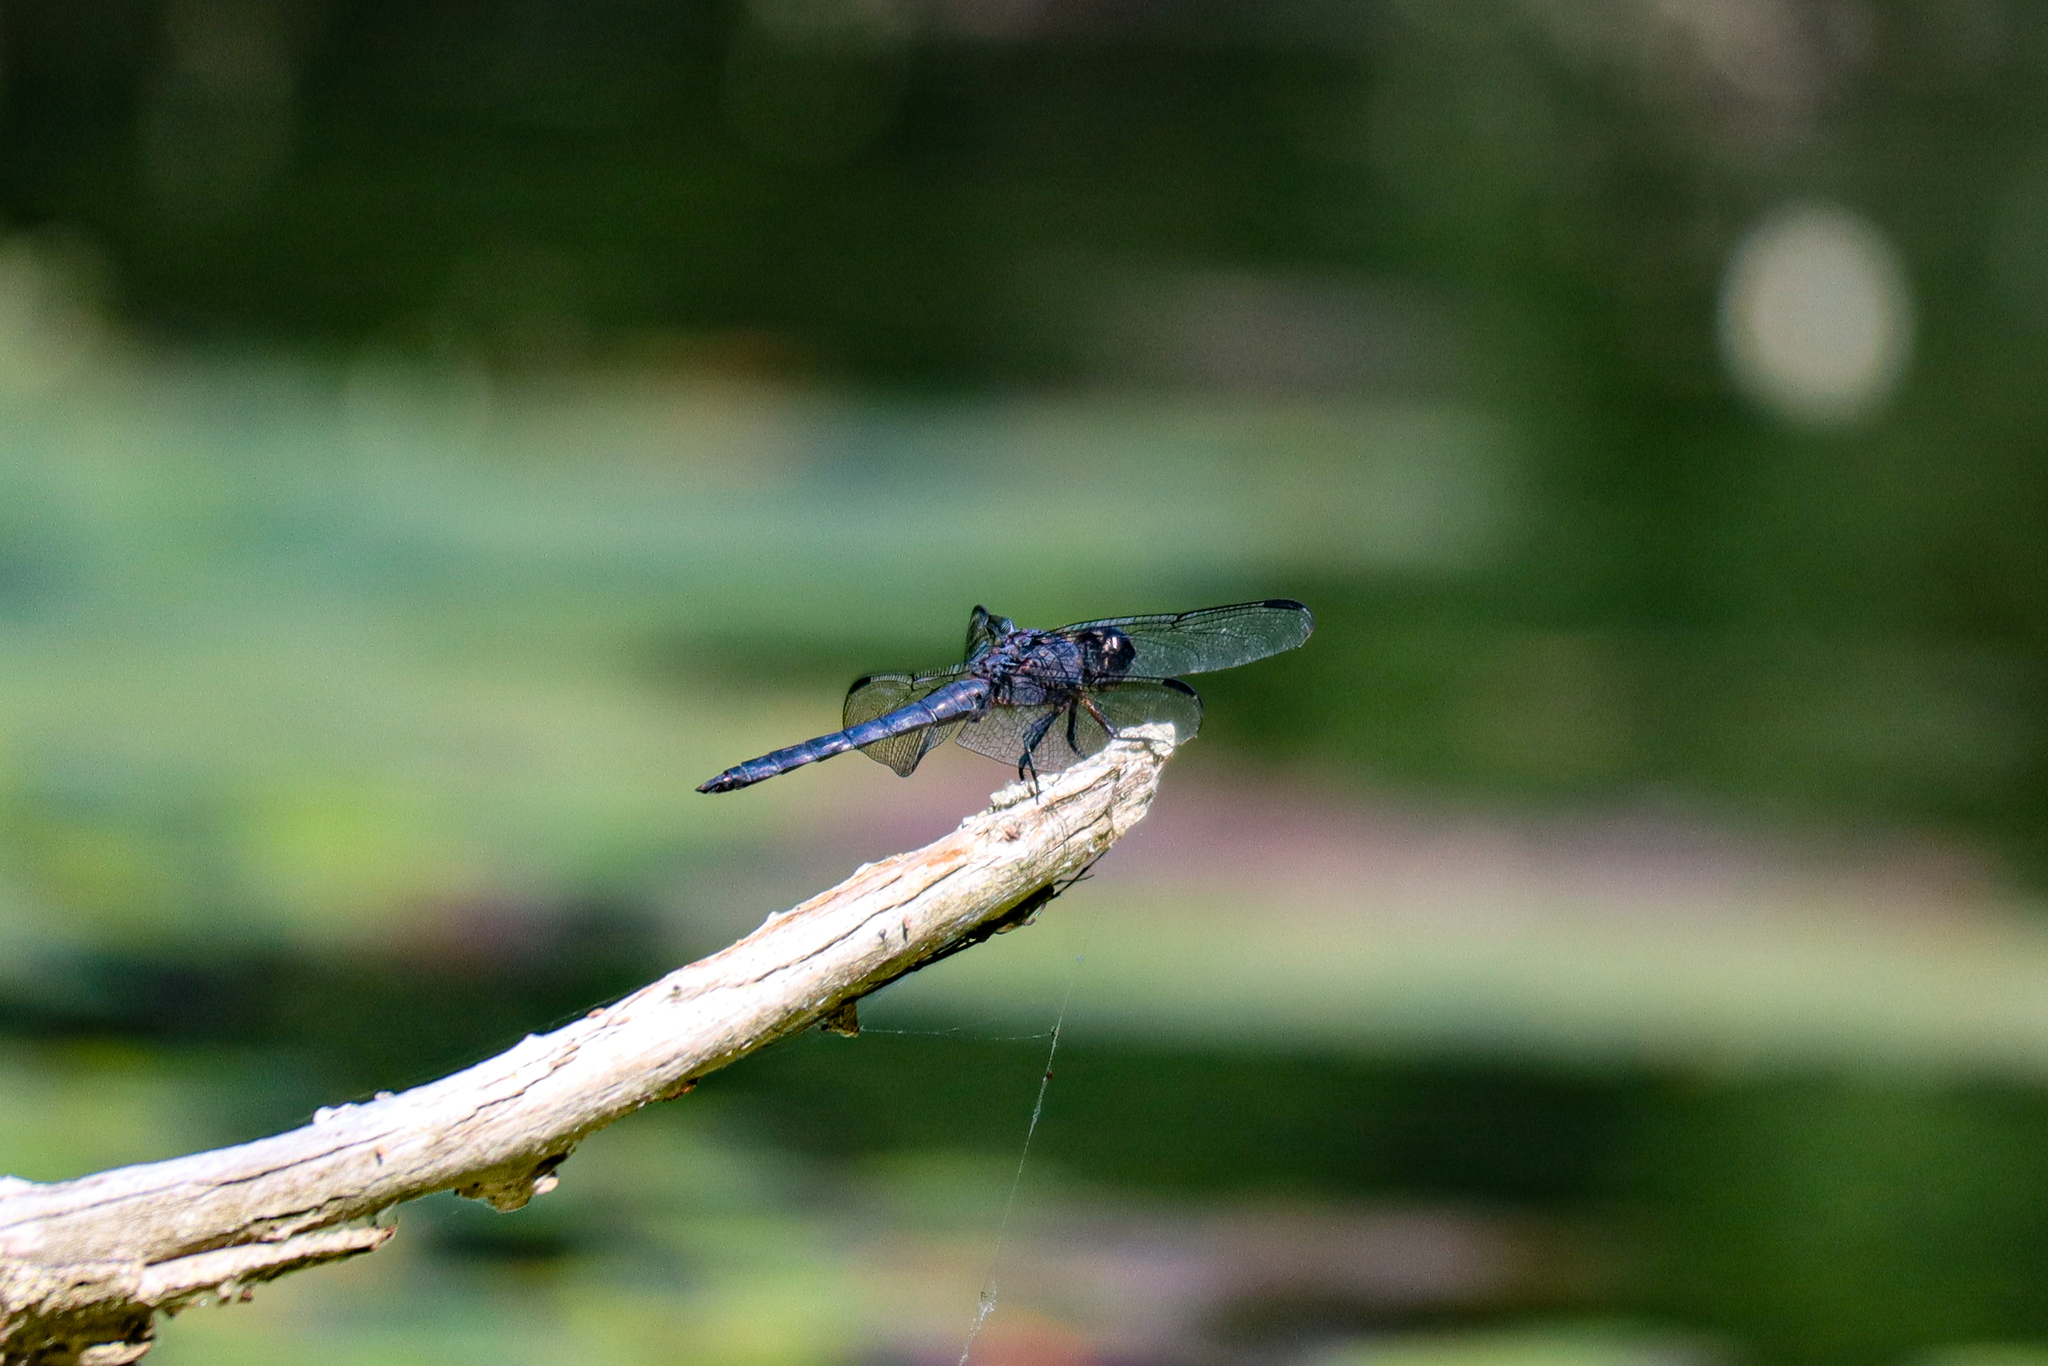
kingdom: Animalia
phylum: Arthropoda
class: Insecta
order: Odonata
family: Libellulidae
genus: Libellula
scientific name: Libellula incesta
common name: Slaty skimmer
